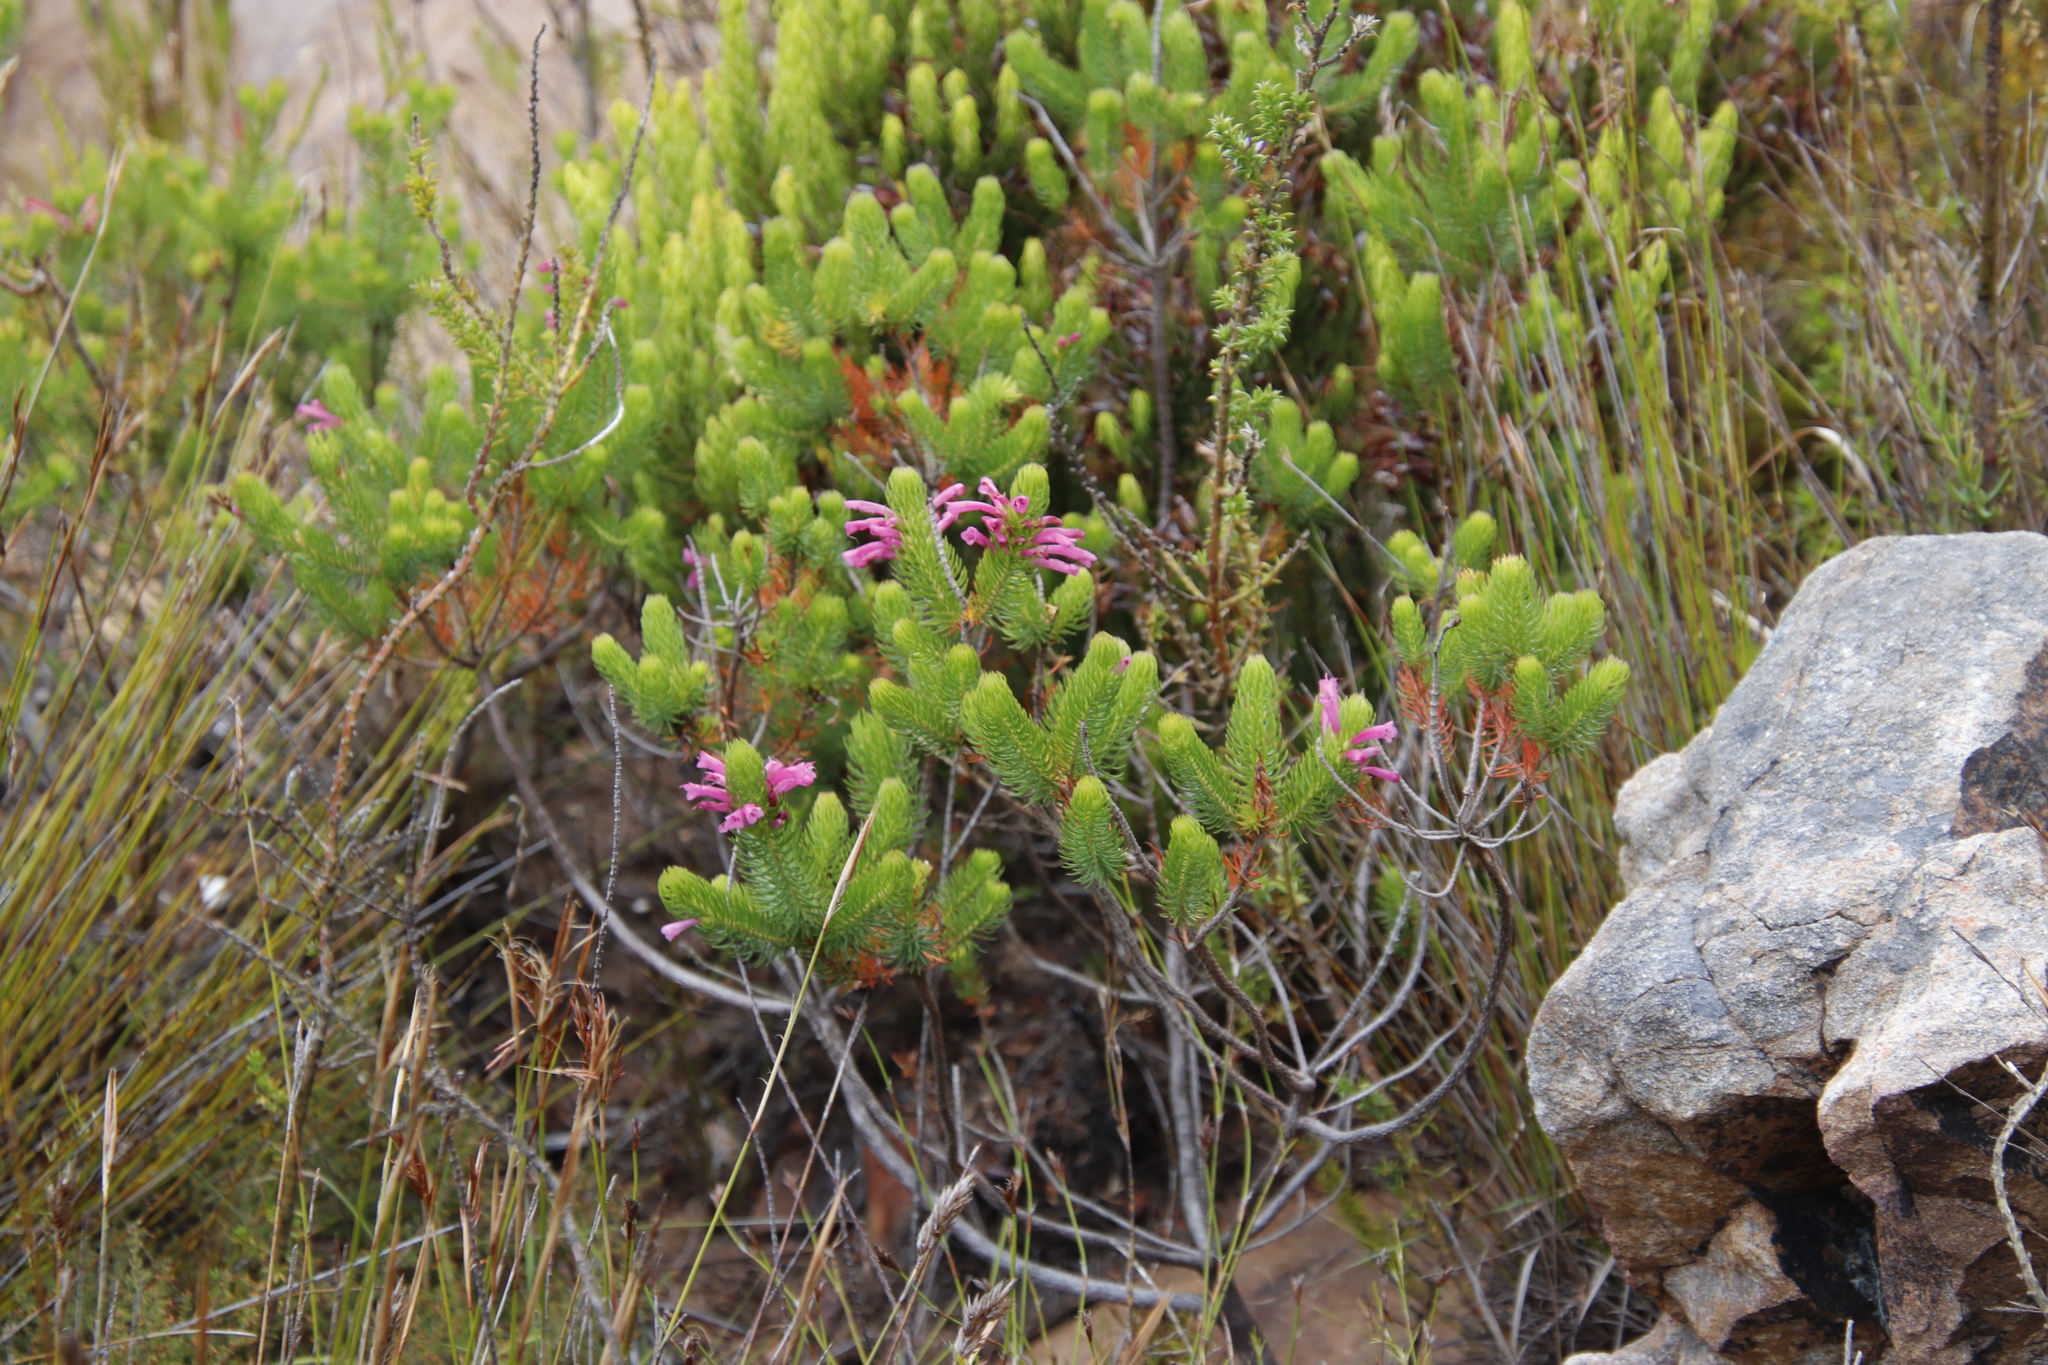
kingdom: Plantae
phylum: Tracheophyta
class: Magnoliopsida
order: Ericales
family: Ericaceae
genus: Erica
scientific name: Erica abietina
